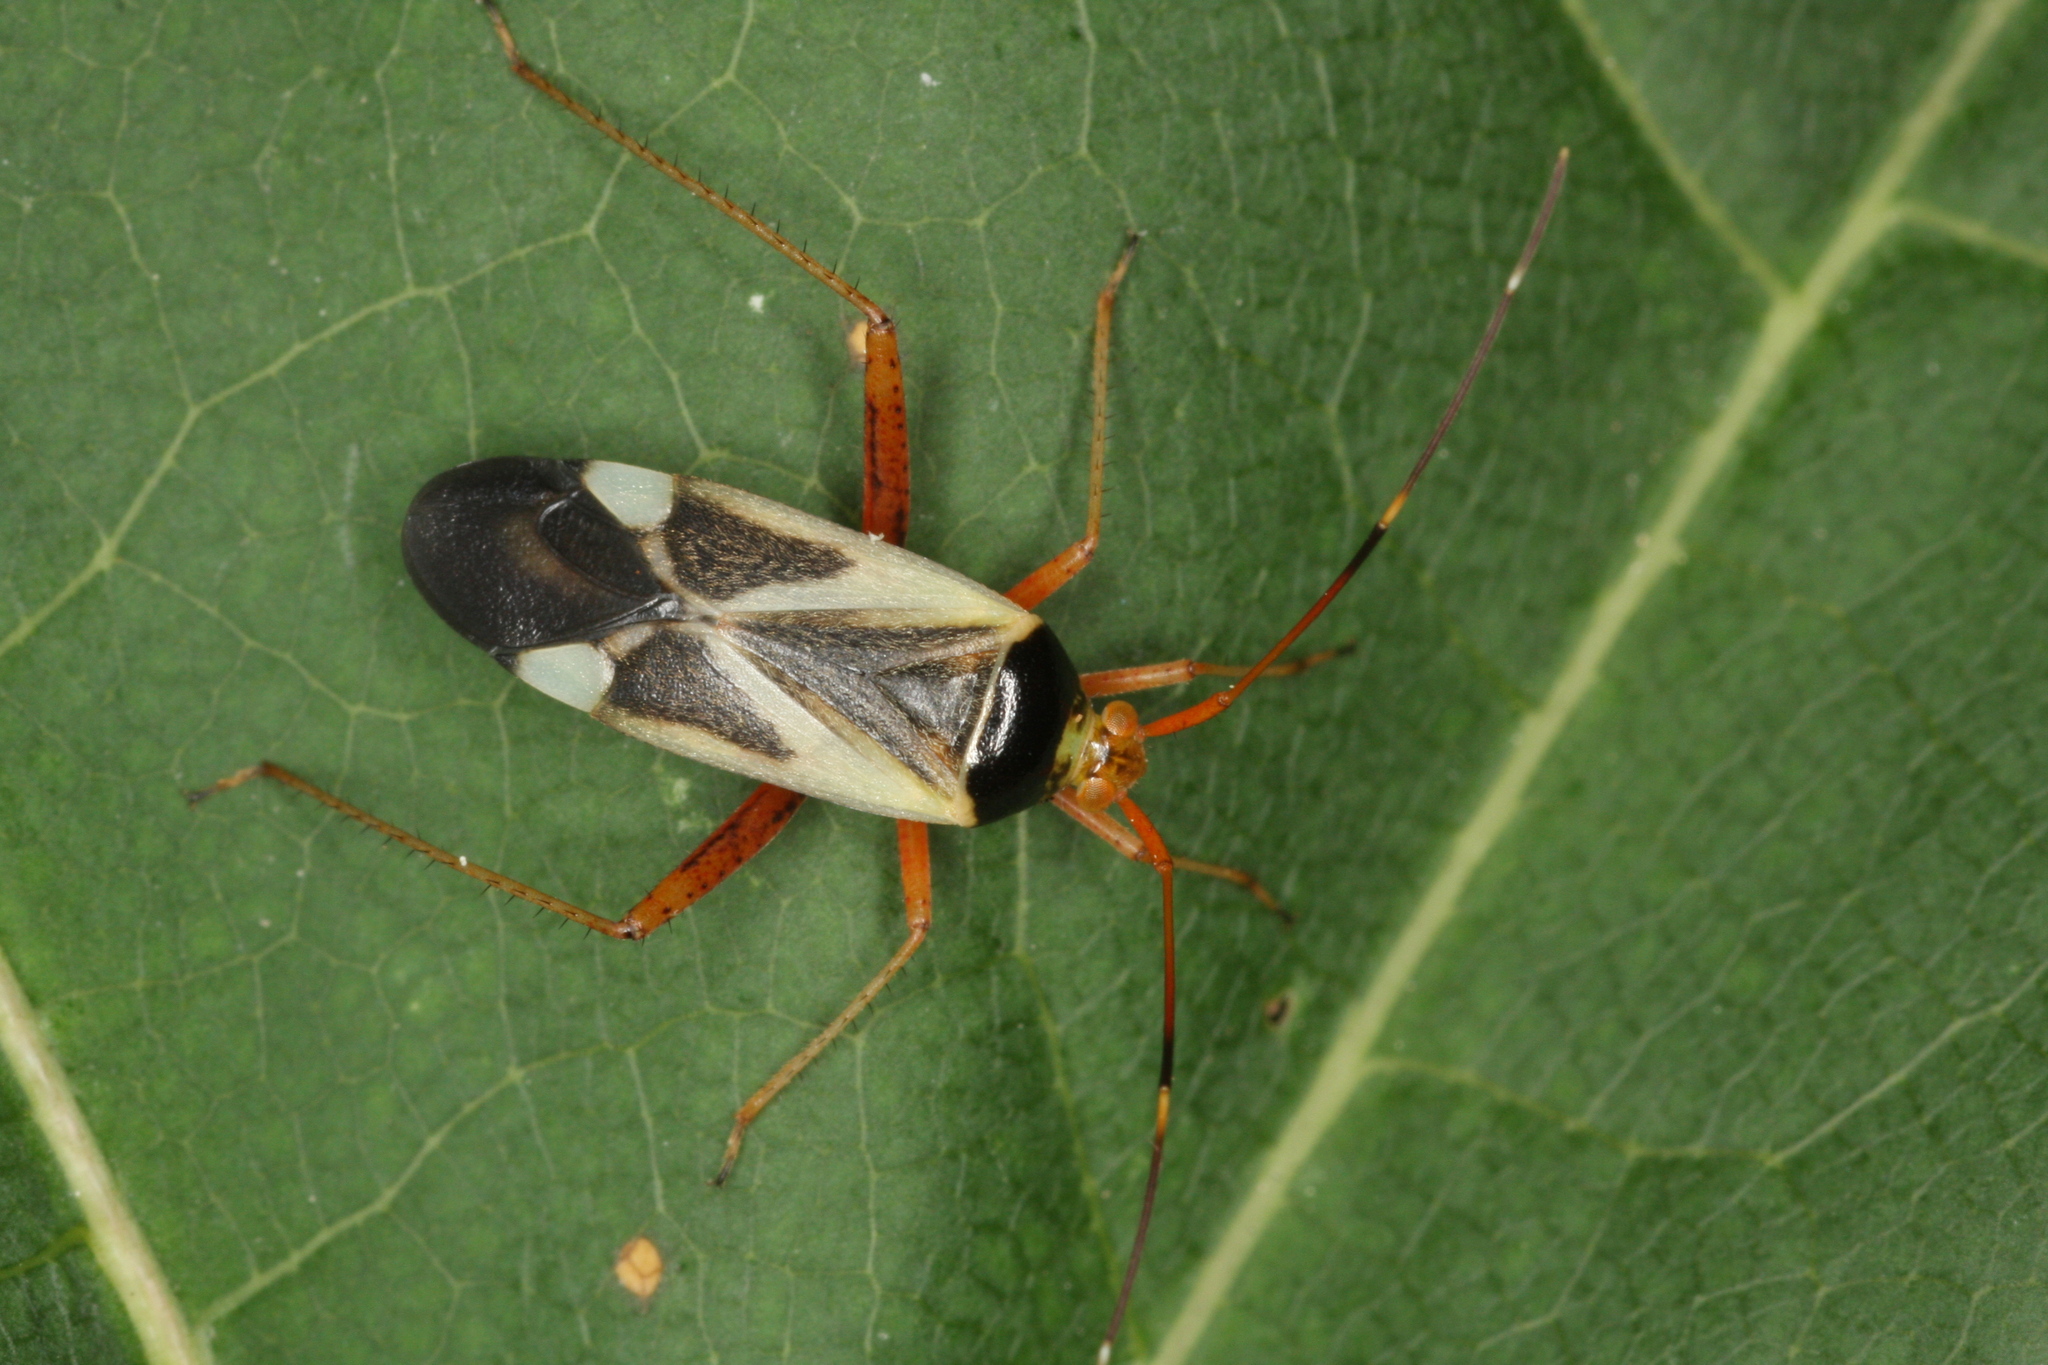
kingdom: Animalia
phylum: Arthropoda
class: Insecta
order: Hemiptera
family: Miridae
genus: Adelphocoris
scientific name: Adelphocoris reicheli
